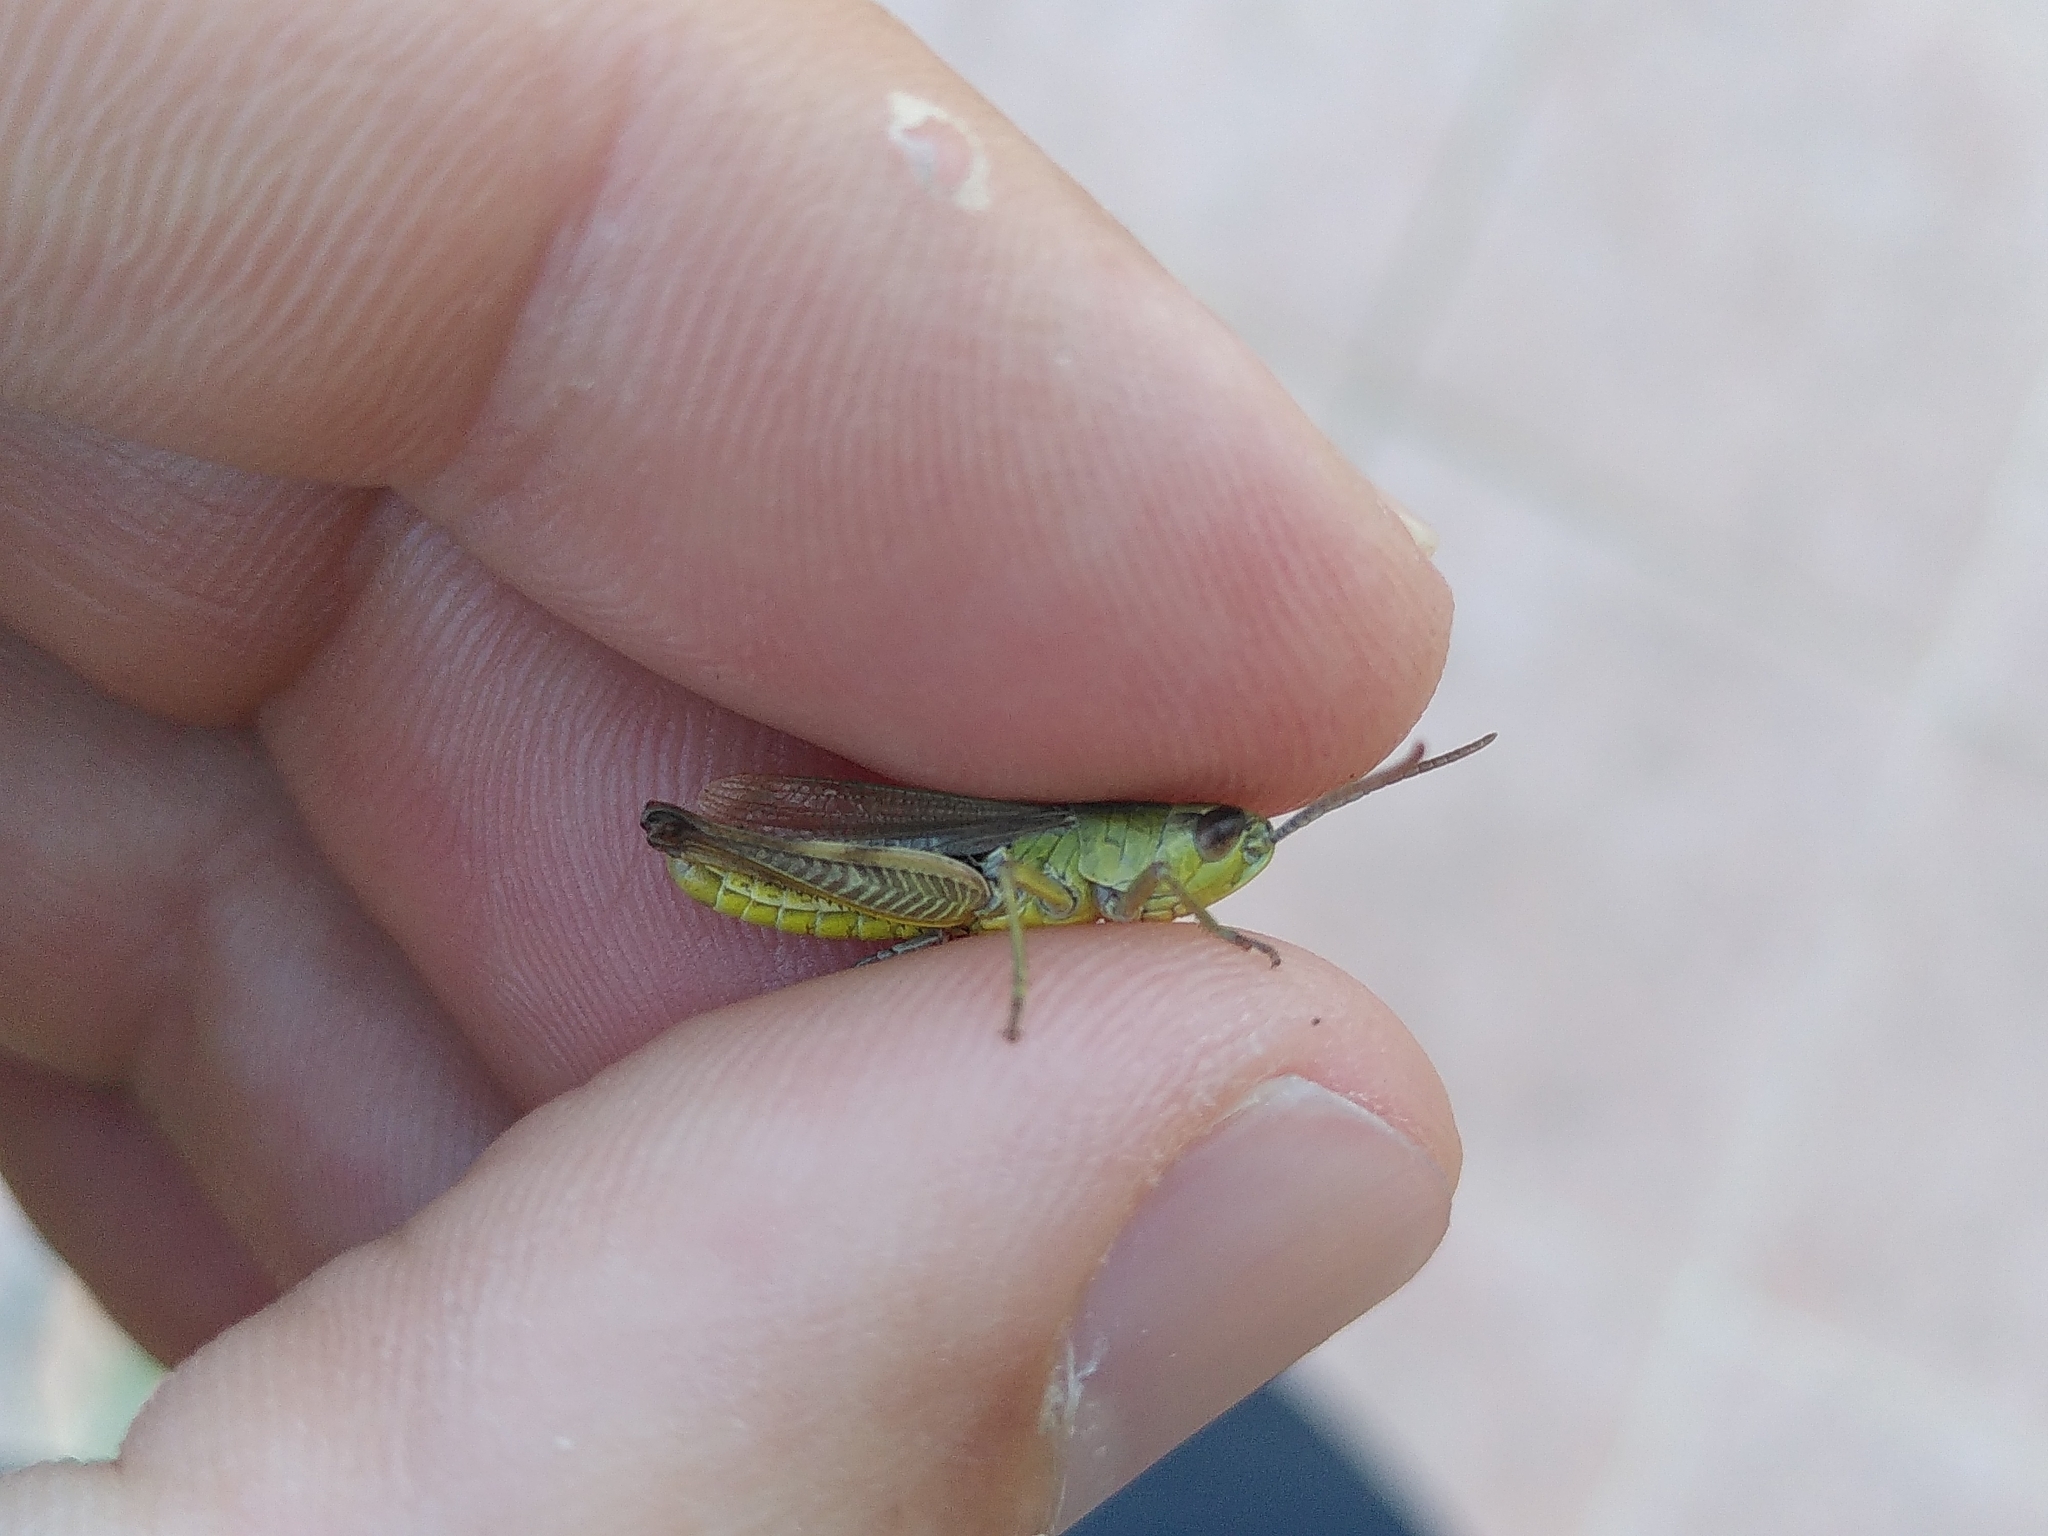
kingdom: Animalia
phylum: Arthropoda
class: Insecta
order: Orthoptera
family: Acrididae
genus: Pseudochorthippus
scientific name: Pseudochorthippus parallelus
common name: Meadow grasshopper
